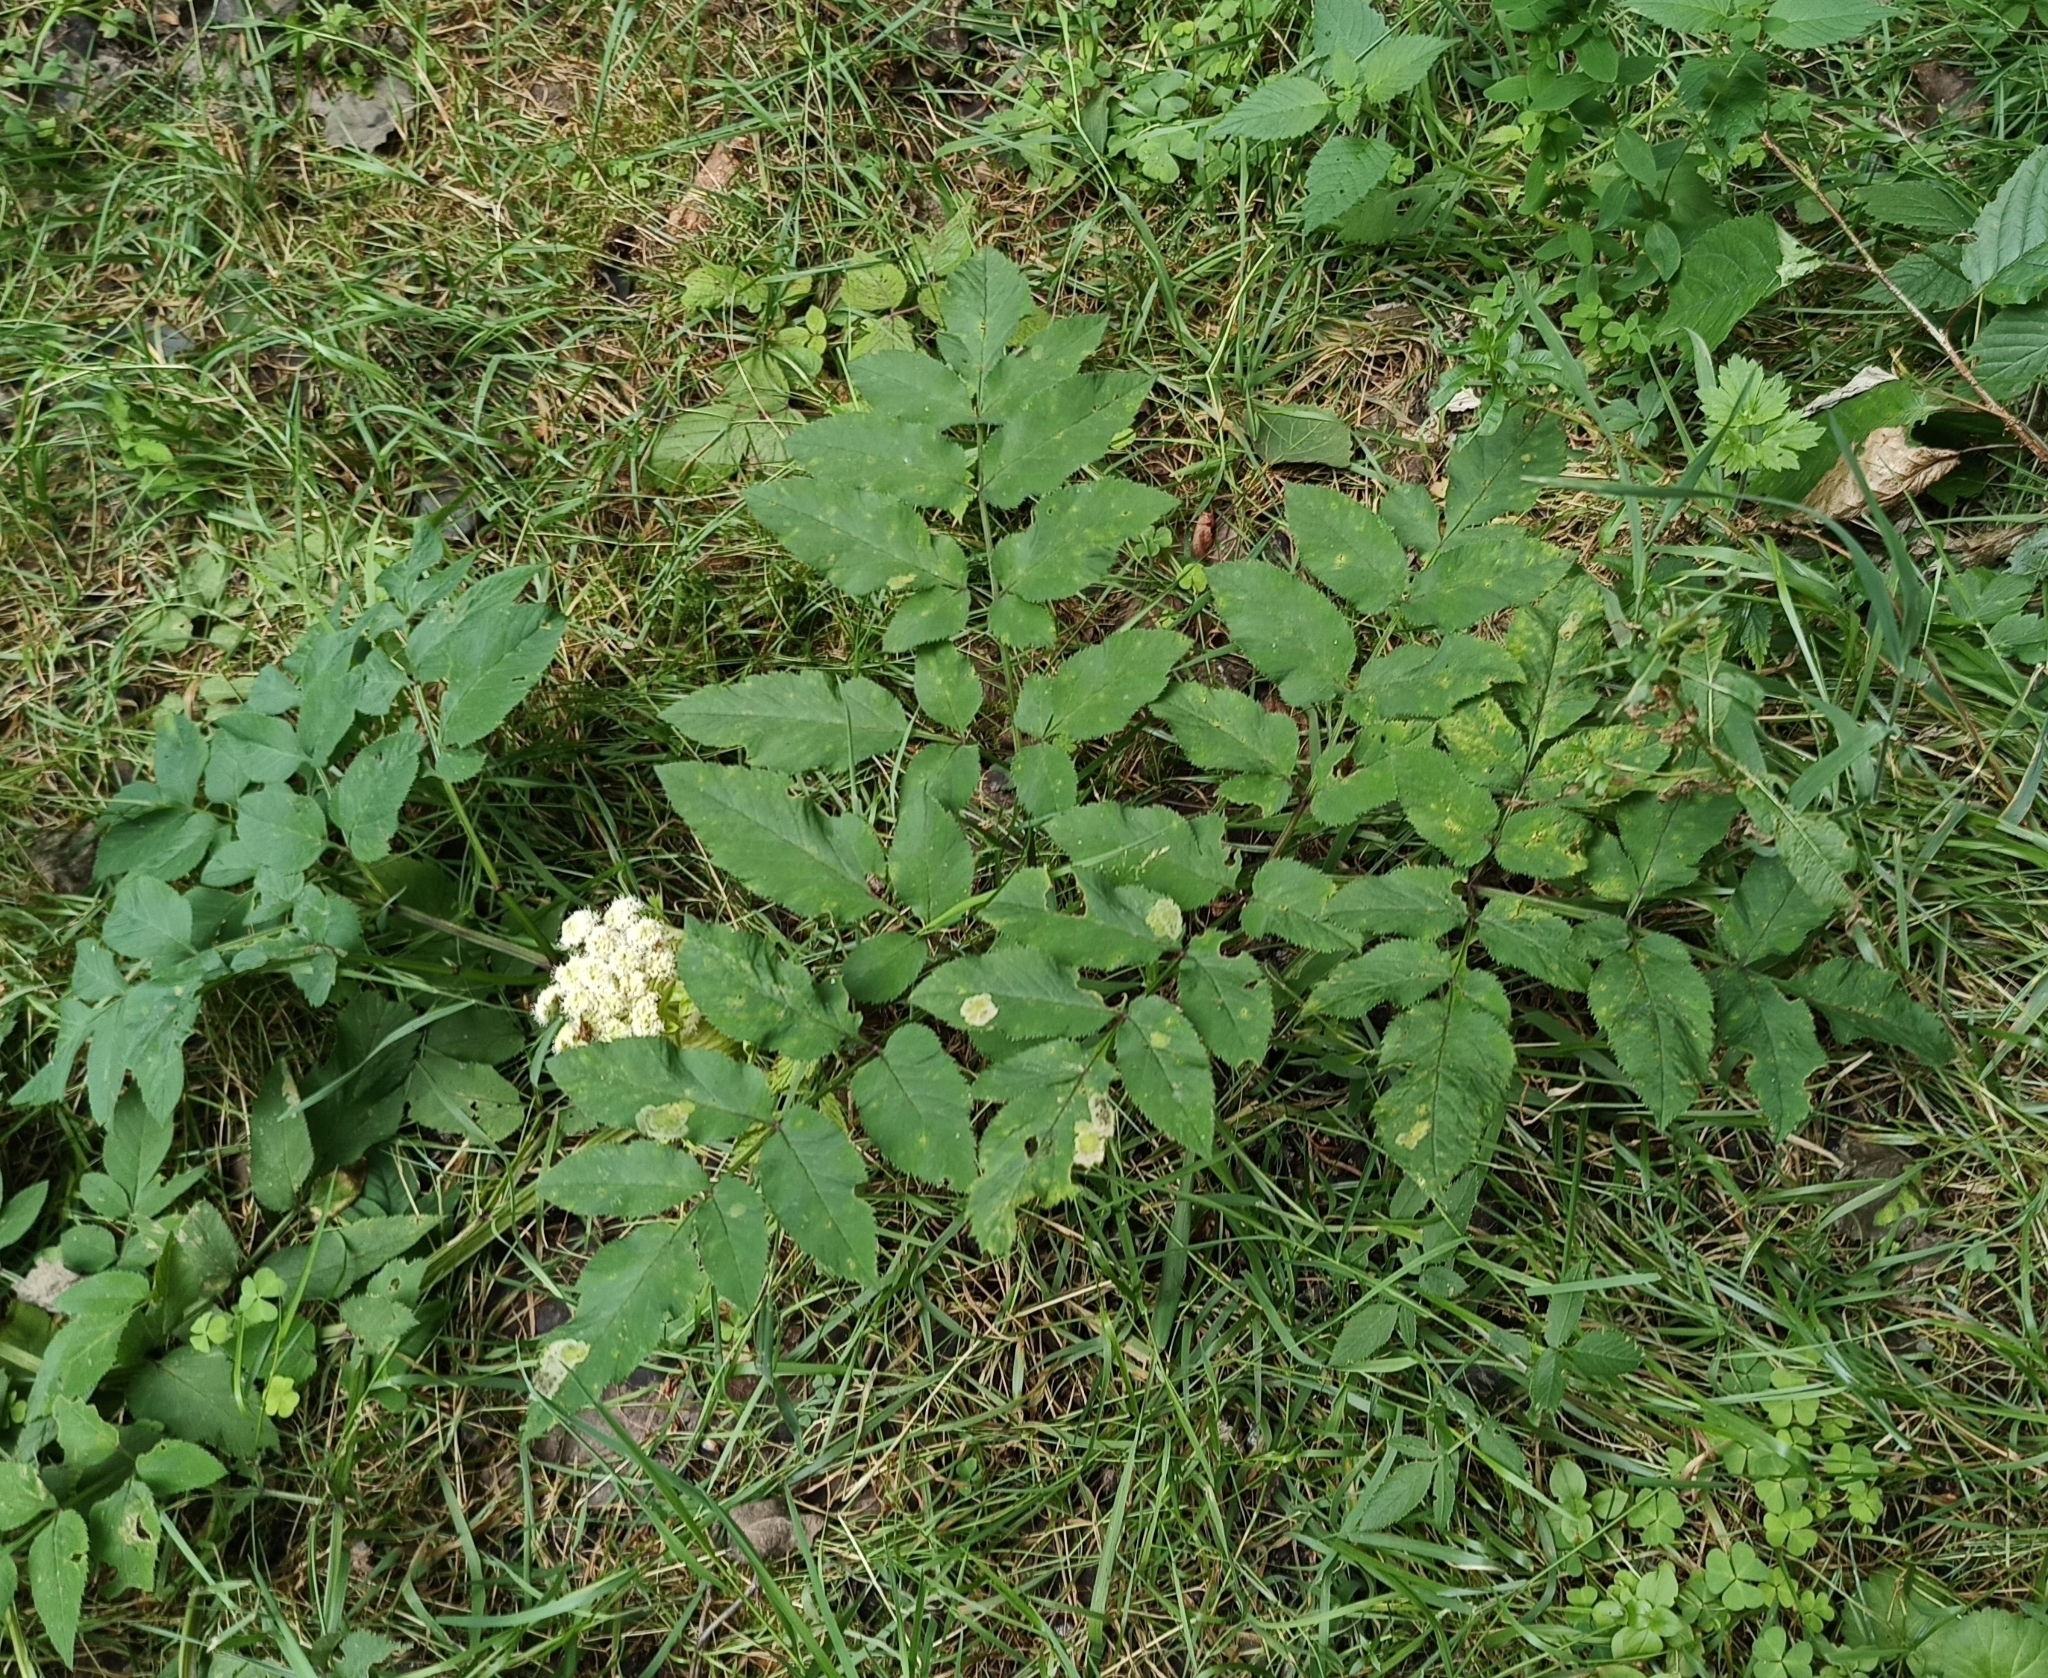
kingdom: Plantae
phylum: Tracheophyta
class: Magnoliopsida
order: Apiales
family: Apiaceae
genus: Angelica
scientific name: Angelica sylvestris
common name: Wild angelica
